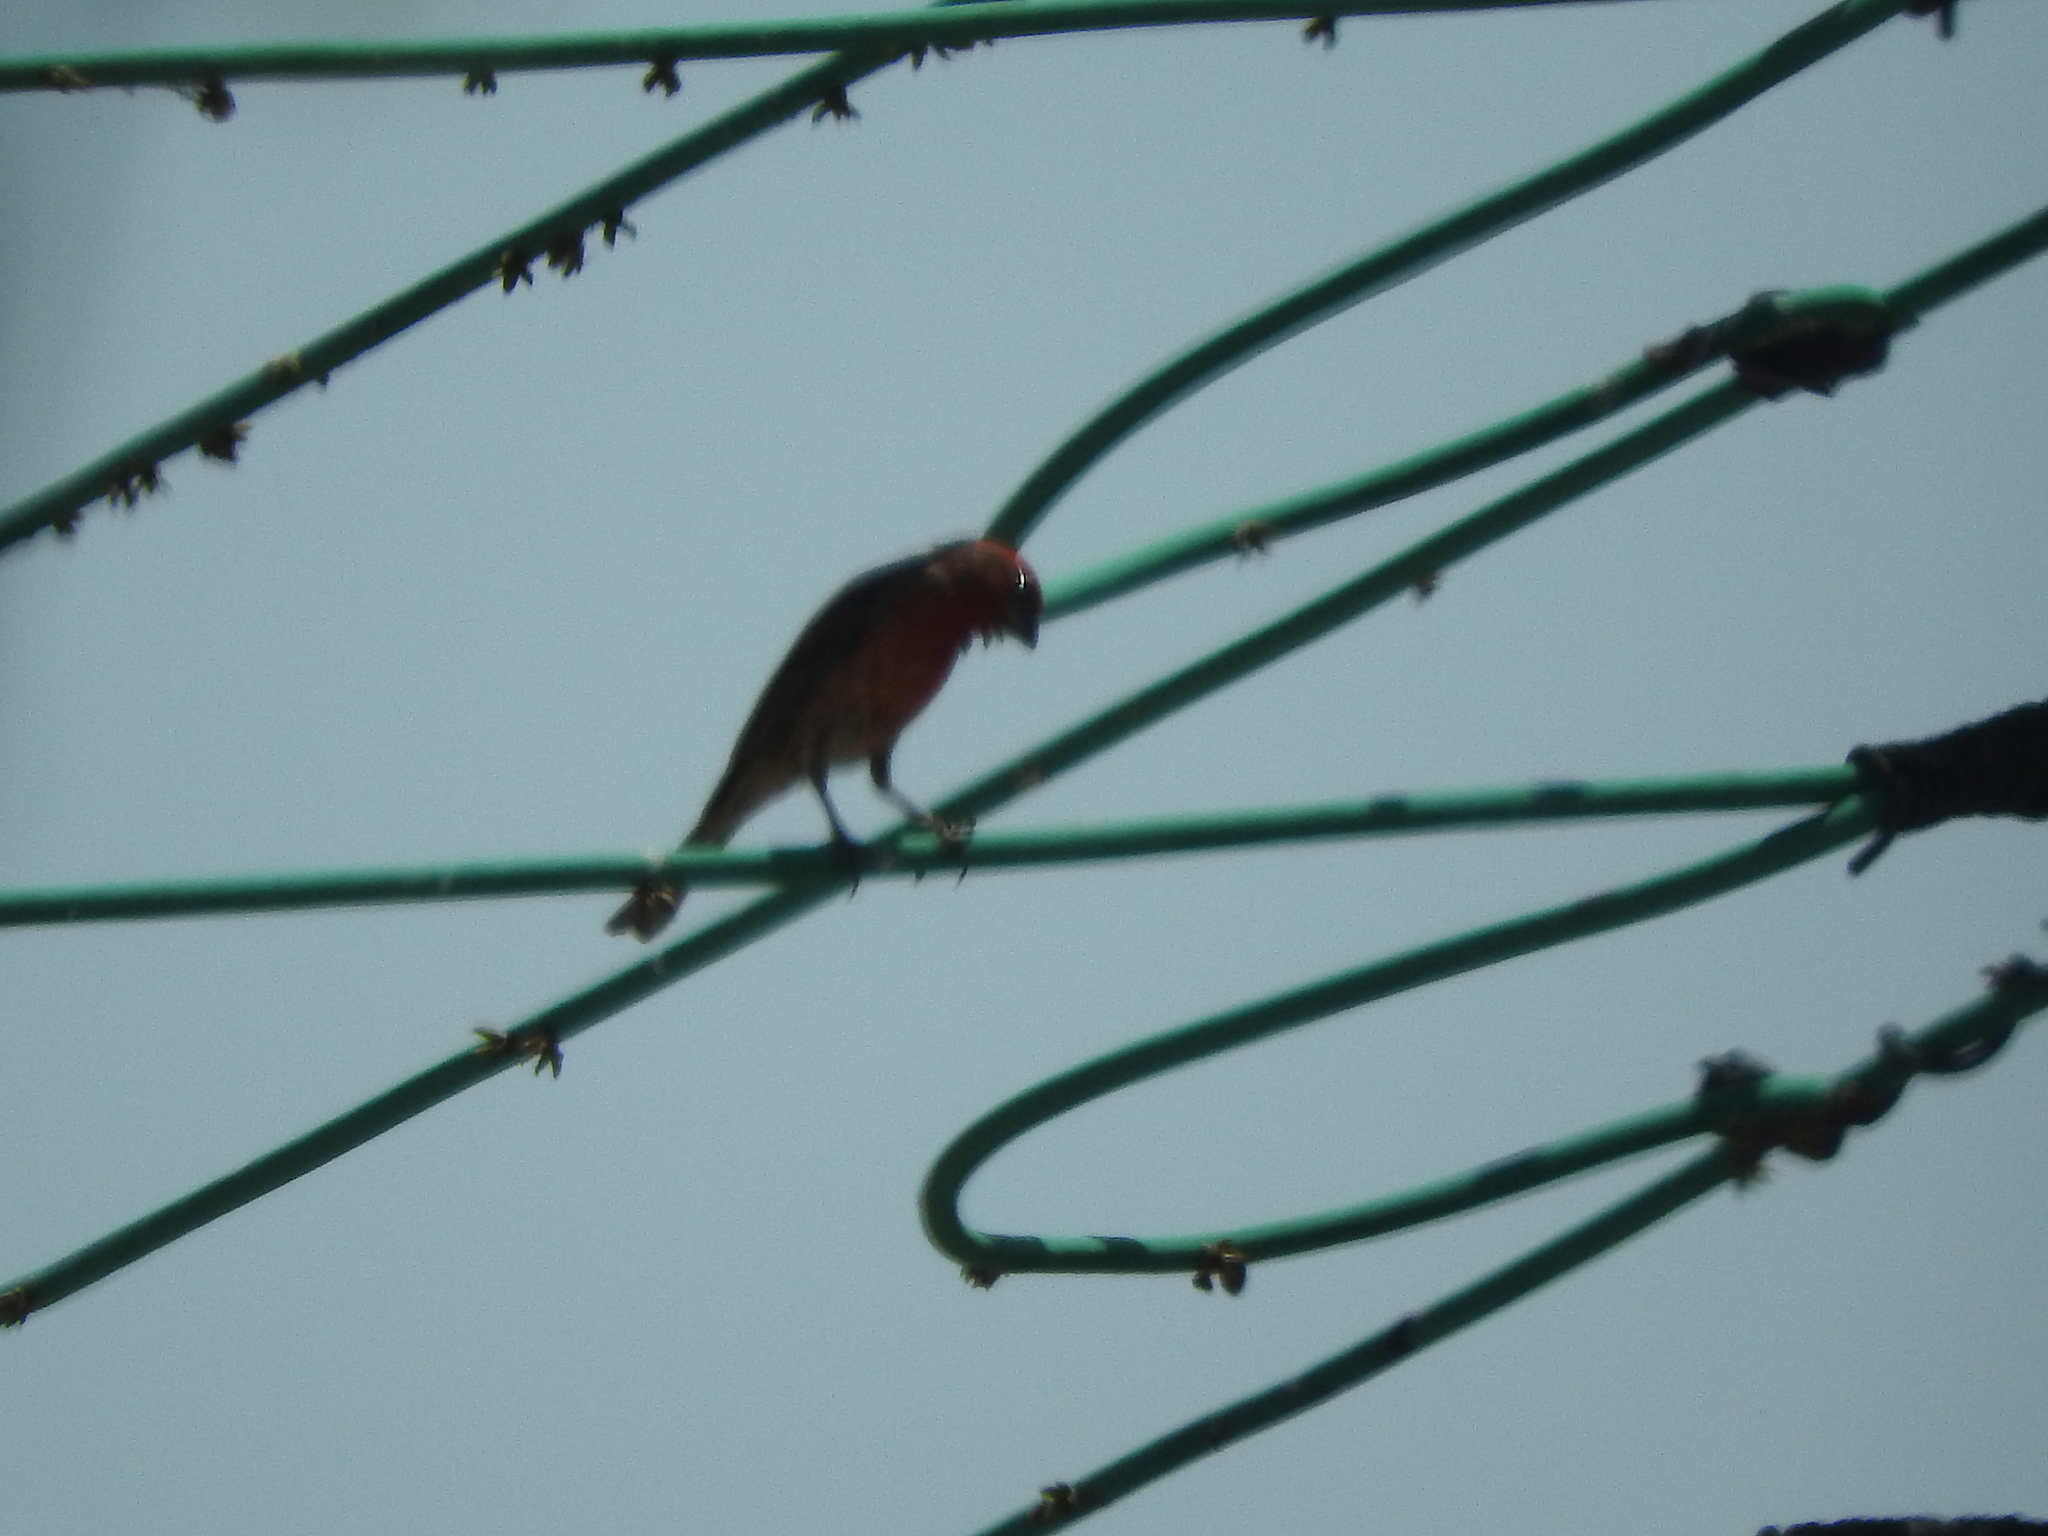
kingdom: Animalia
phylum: Chordata
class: Aves
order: Passeriformes
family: Fringillidae
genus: Haemorhous
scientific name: Haemorhous mexicanus
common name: House finch
